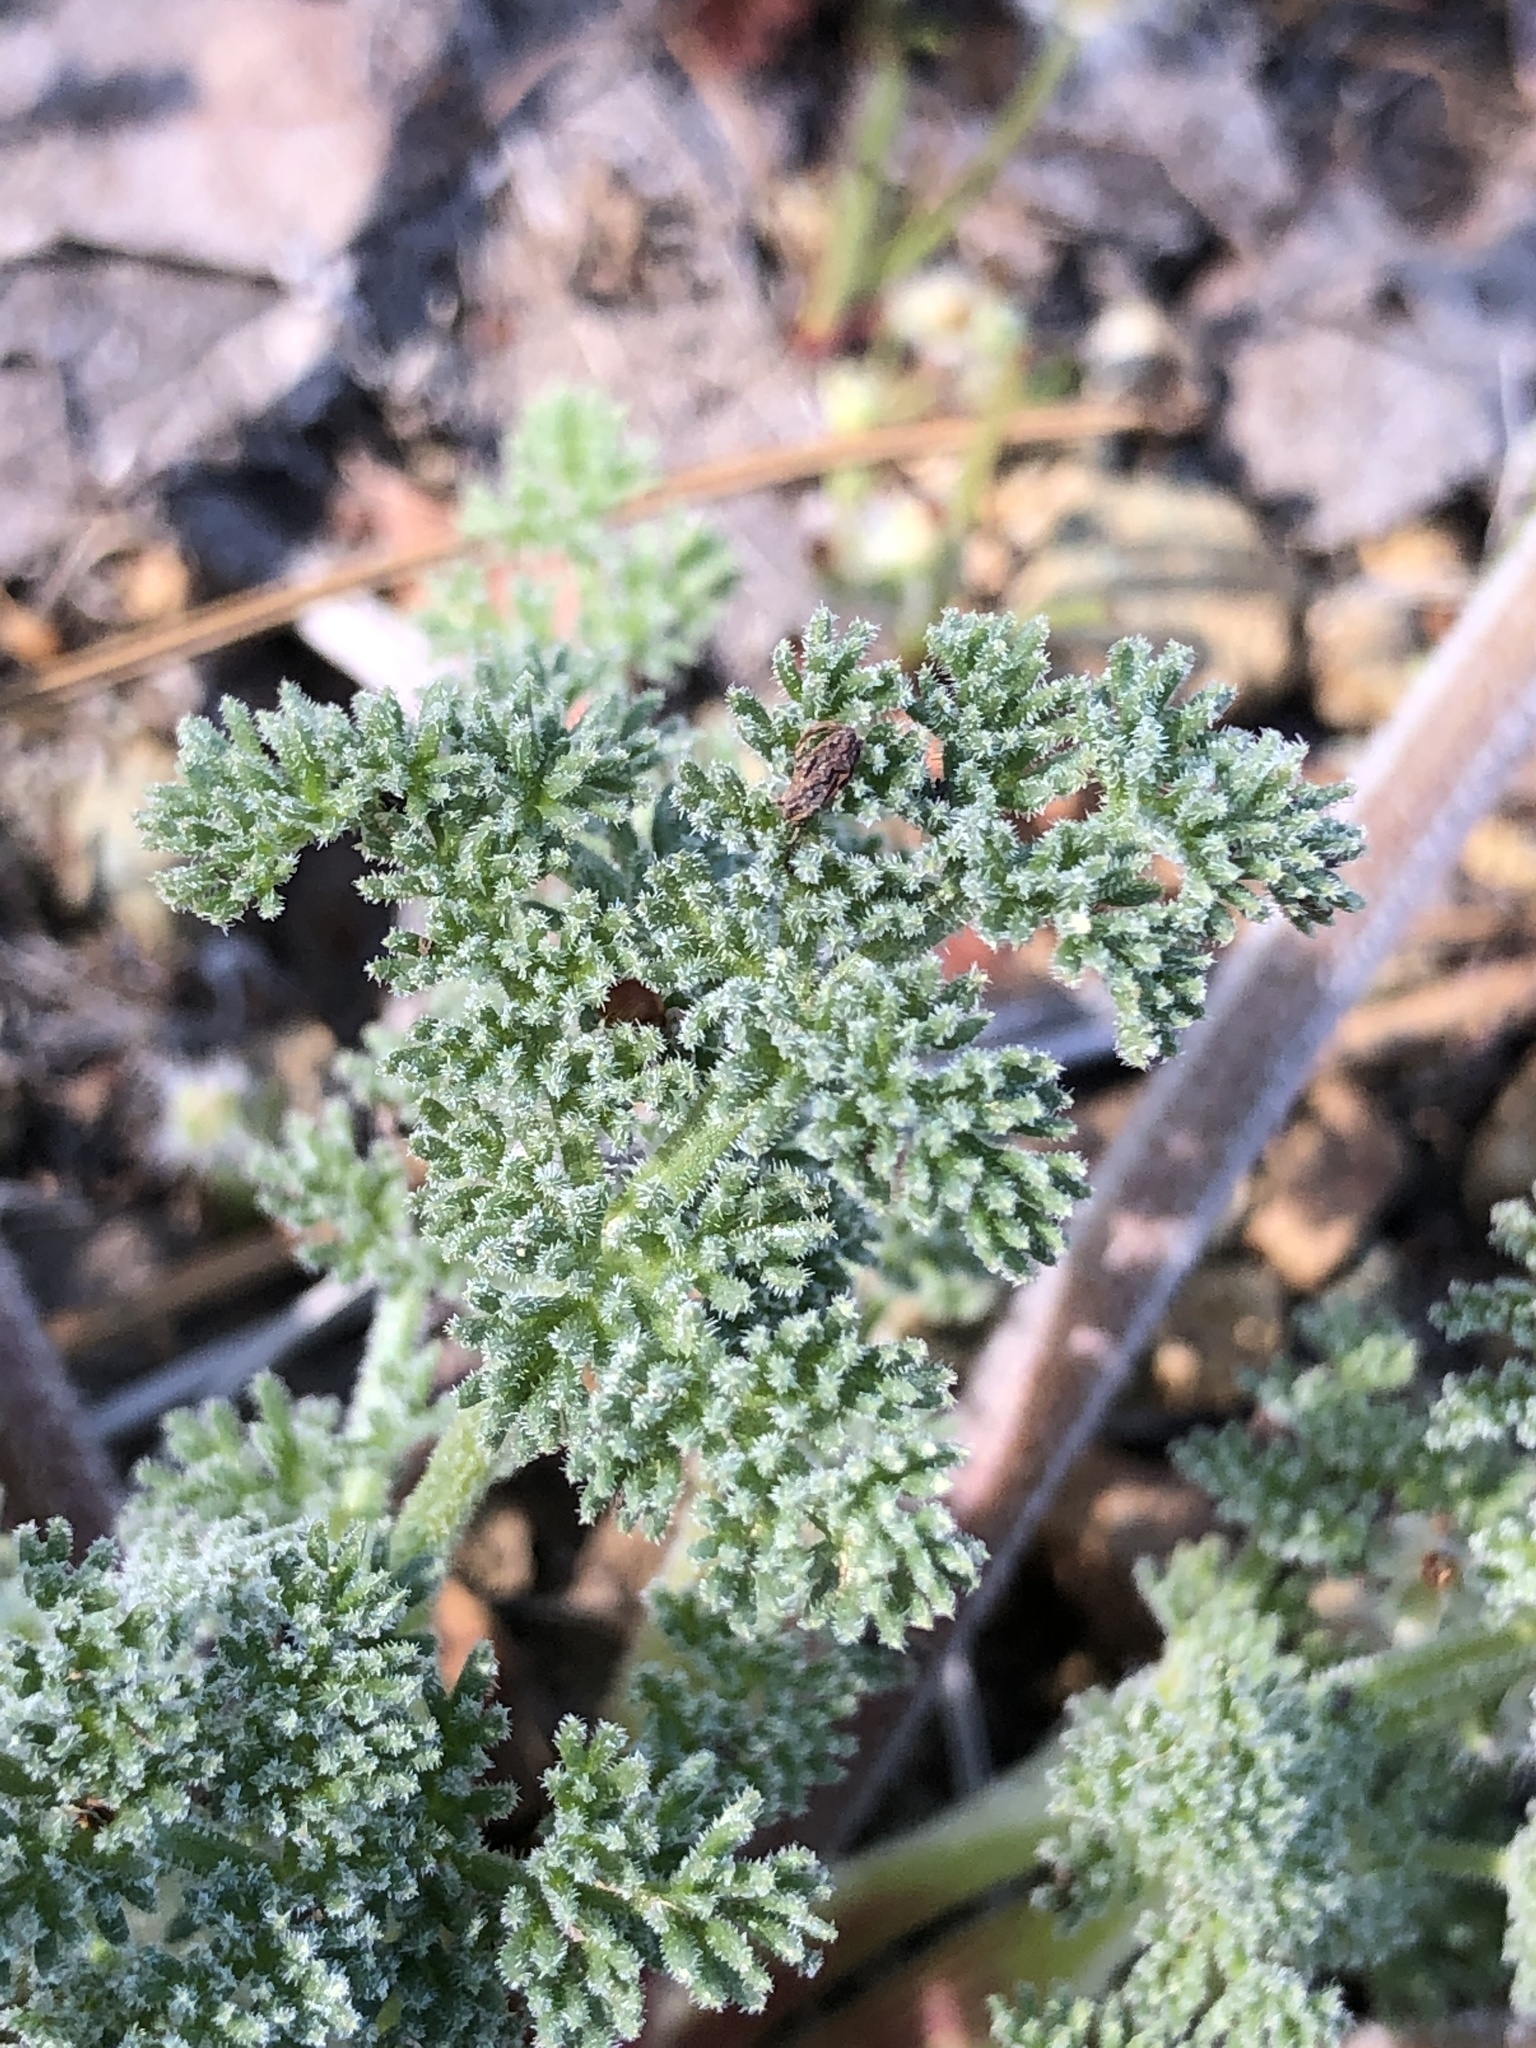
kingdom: Plantae
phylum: Tracheophyta
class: Magnoliopsida
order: Apiales
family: Apiaceae
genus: Lomatium
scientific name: Lomatium dasycarpum
